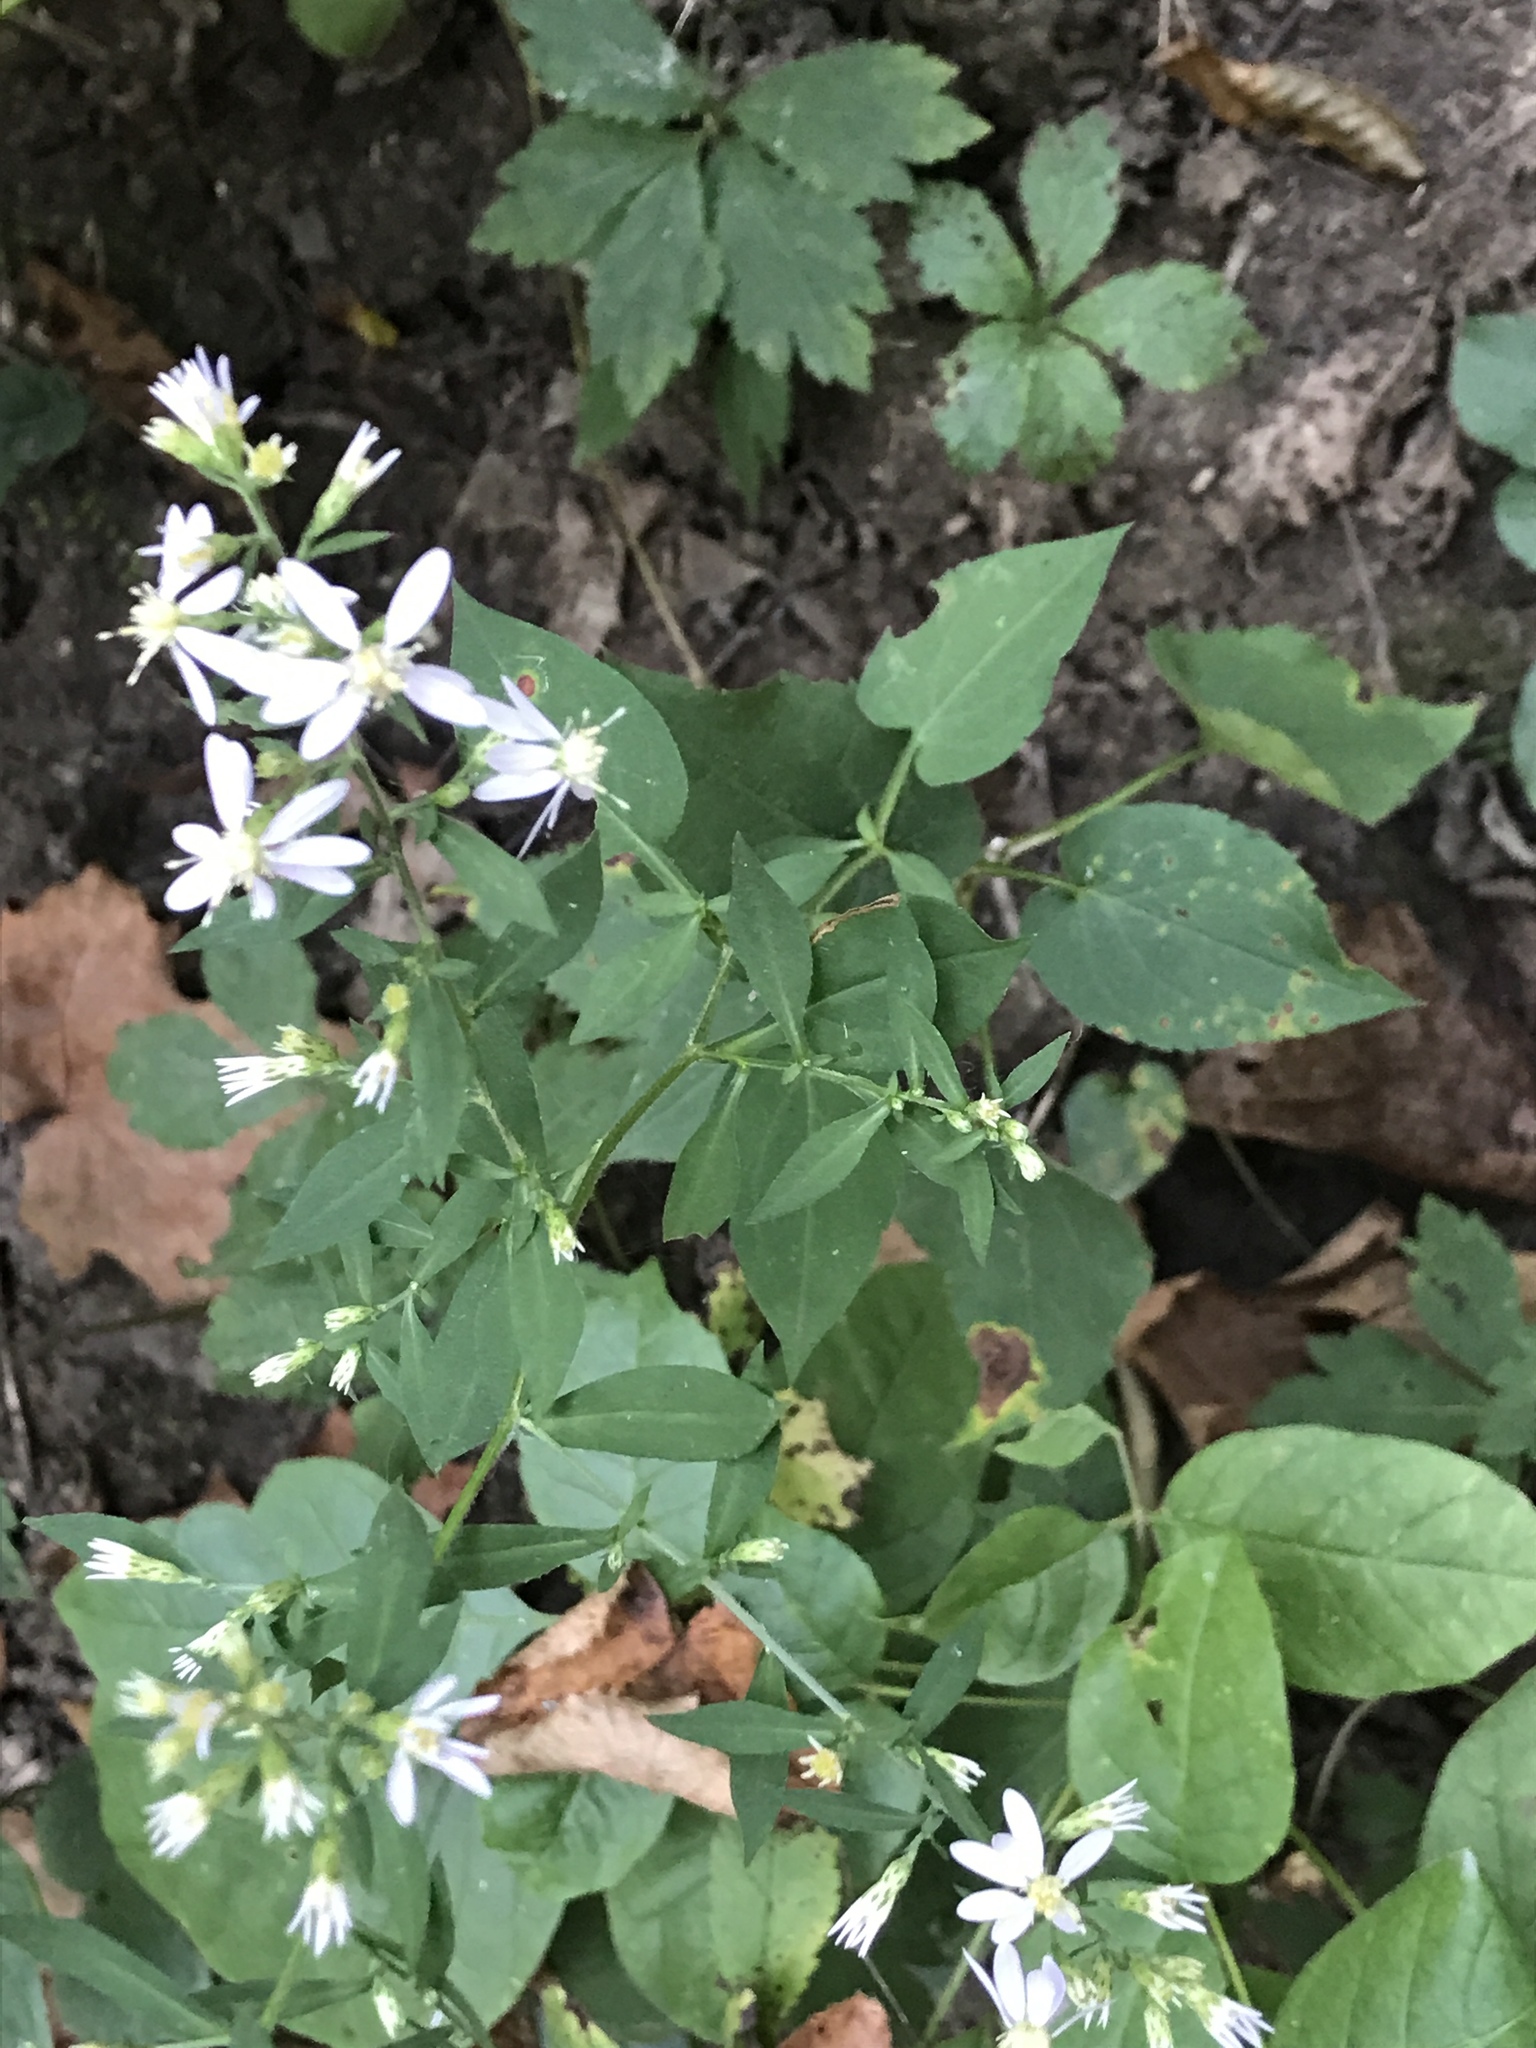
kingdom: Plantae
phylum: Tracheophyta
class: Magnoliopsida
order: Asterales
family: Asteraceae
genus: Symphyotrichum
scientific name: Symphyotrichum cordifolium
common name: Beeweed
